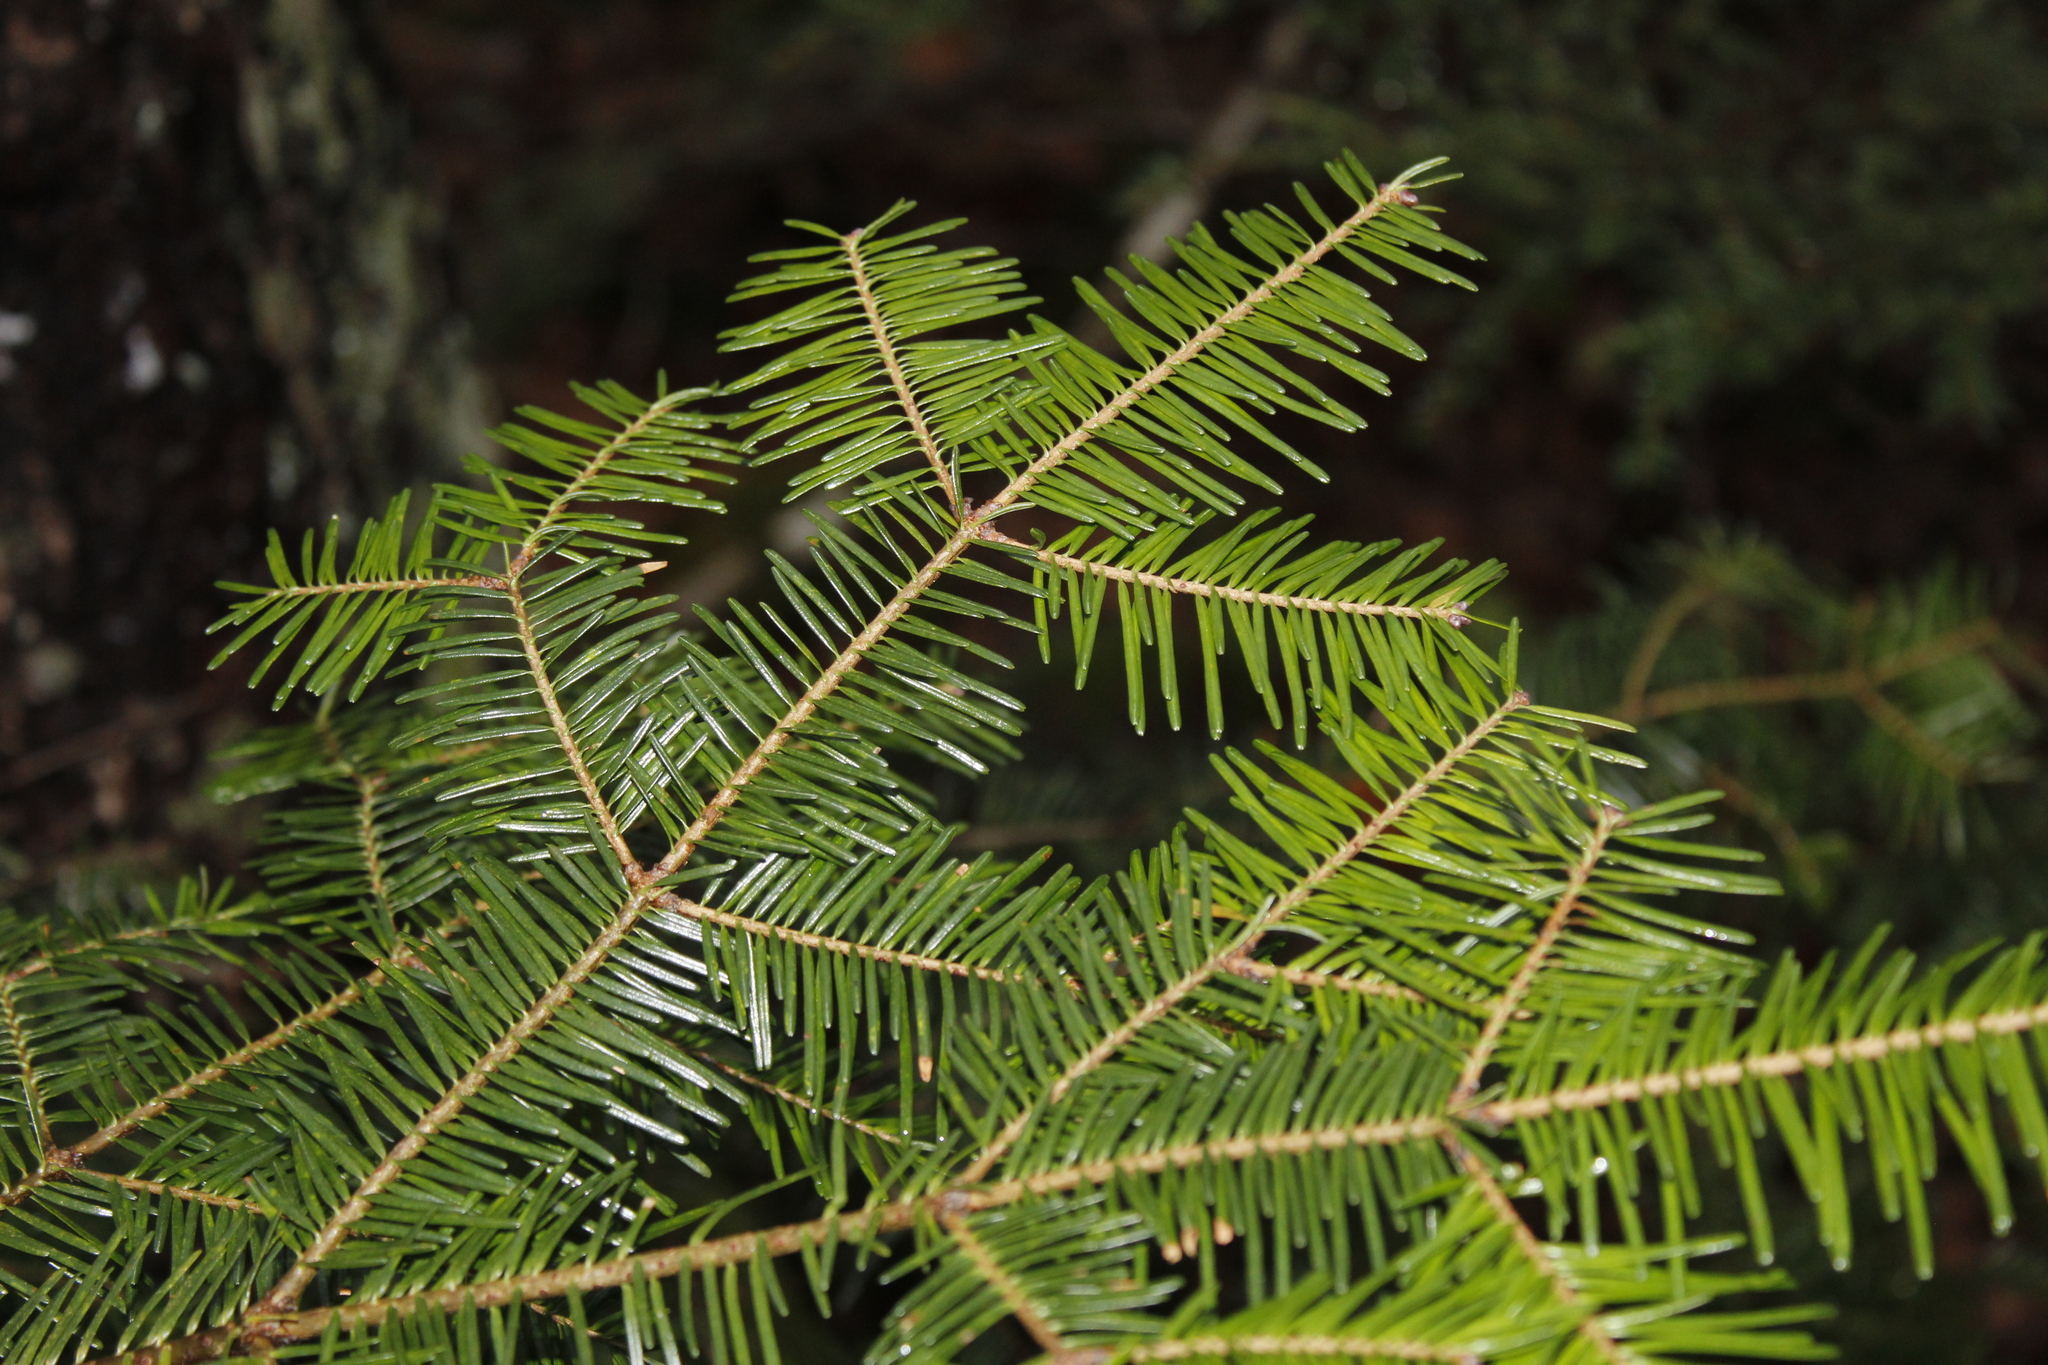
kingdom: Plantae
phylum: Tracheophyta
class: Pinopsida
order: Pinales
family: Pinaceae
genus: Abies
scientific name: Abies balsamea
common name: Balsam fir
